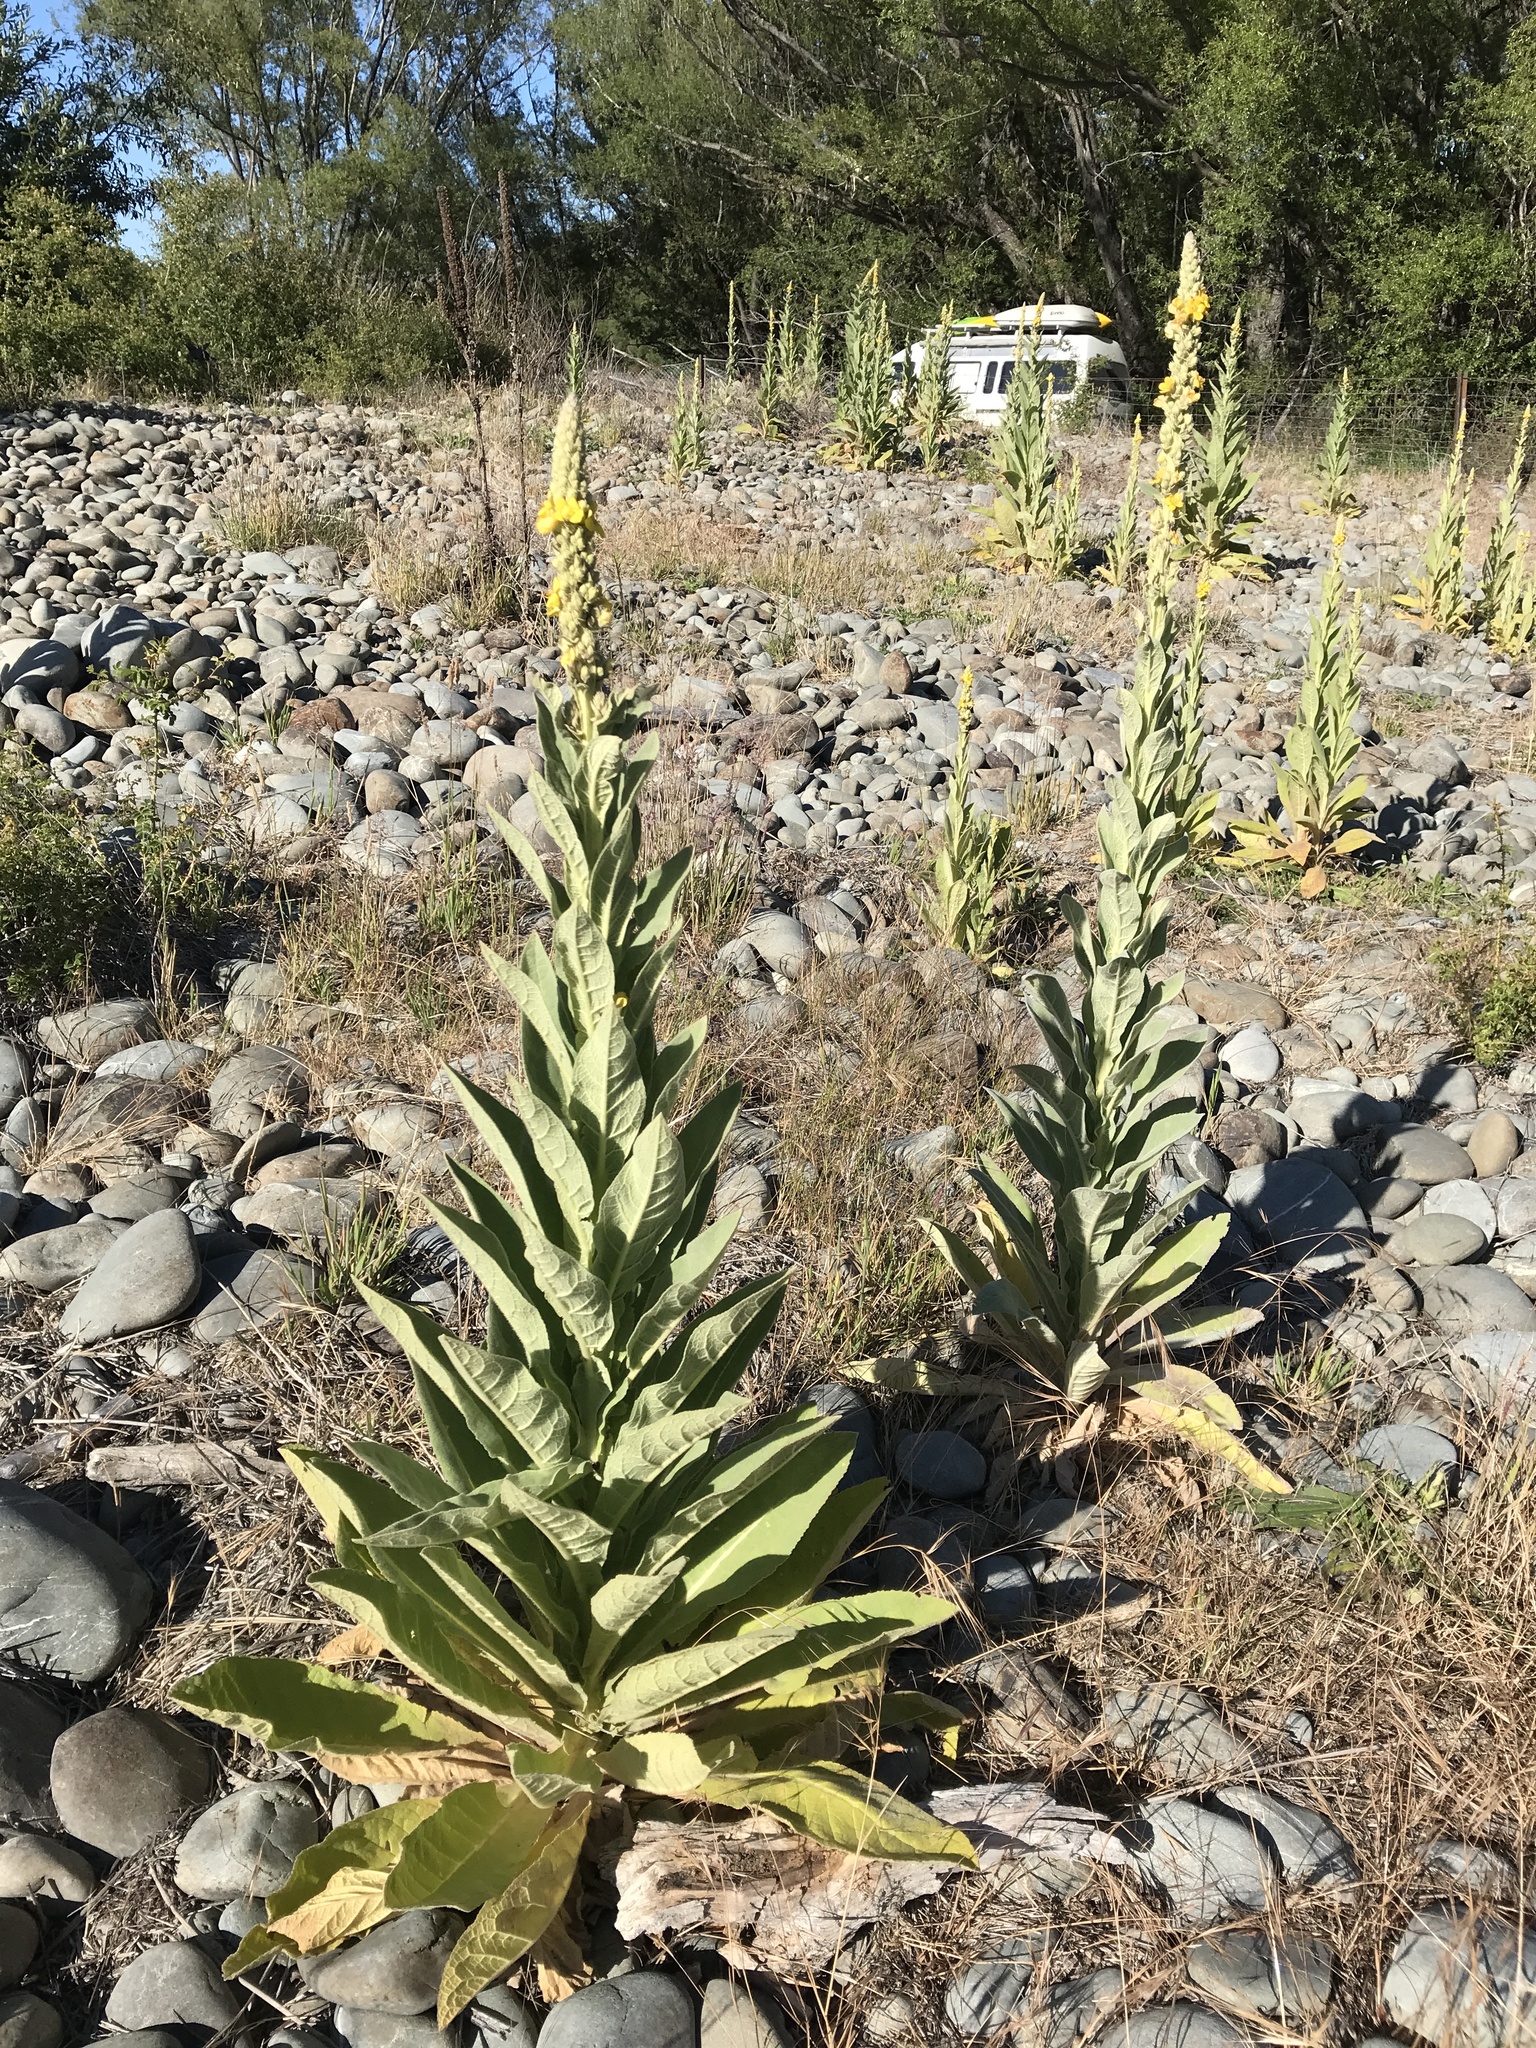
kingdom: Plantae
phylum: Tracheophyta
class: Magnoliopsida
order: Lamiales
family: Scrophulariaceae
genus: Verbascum
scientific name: Verbascum thapsus
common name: Common mullein
